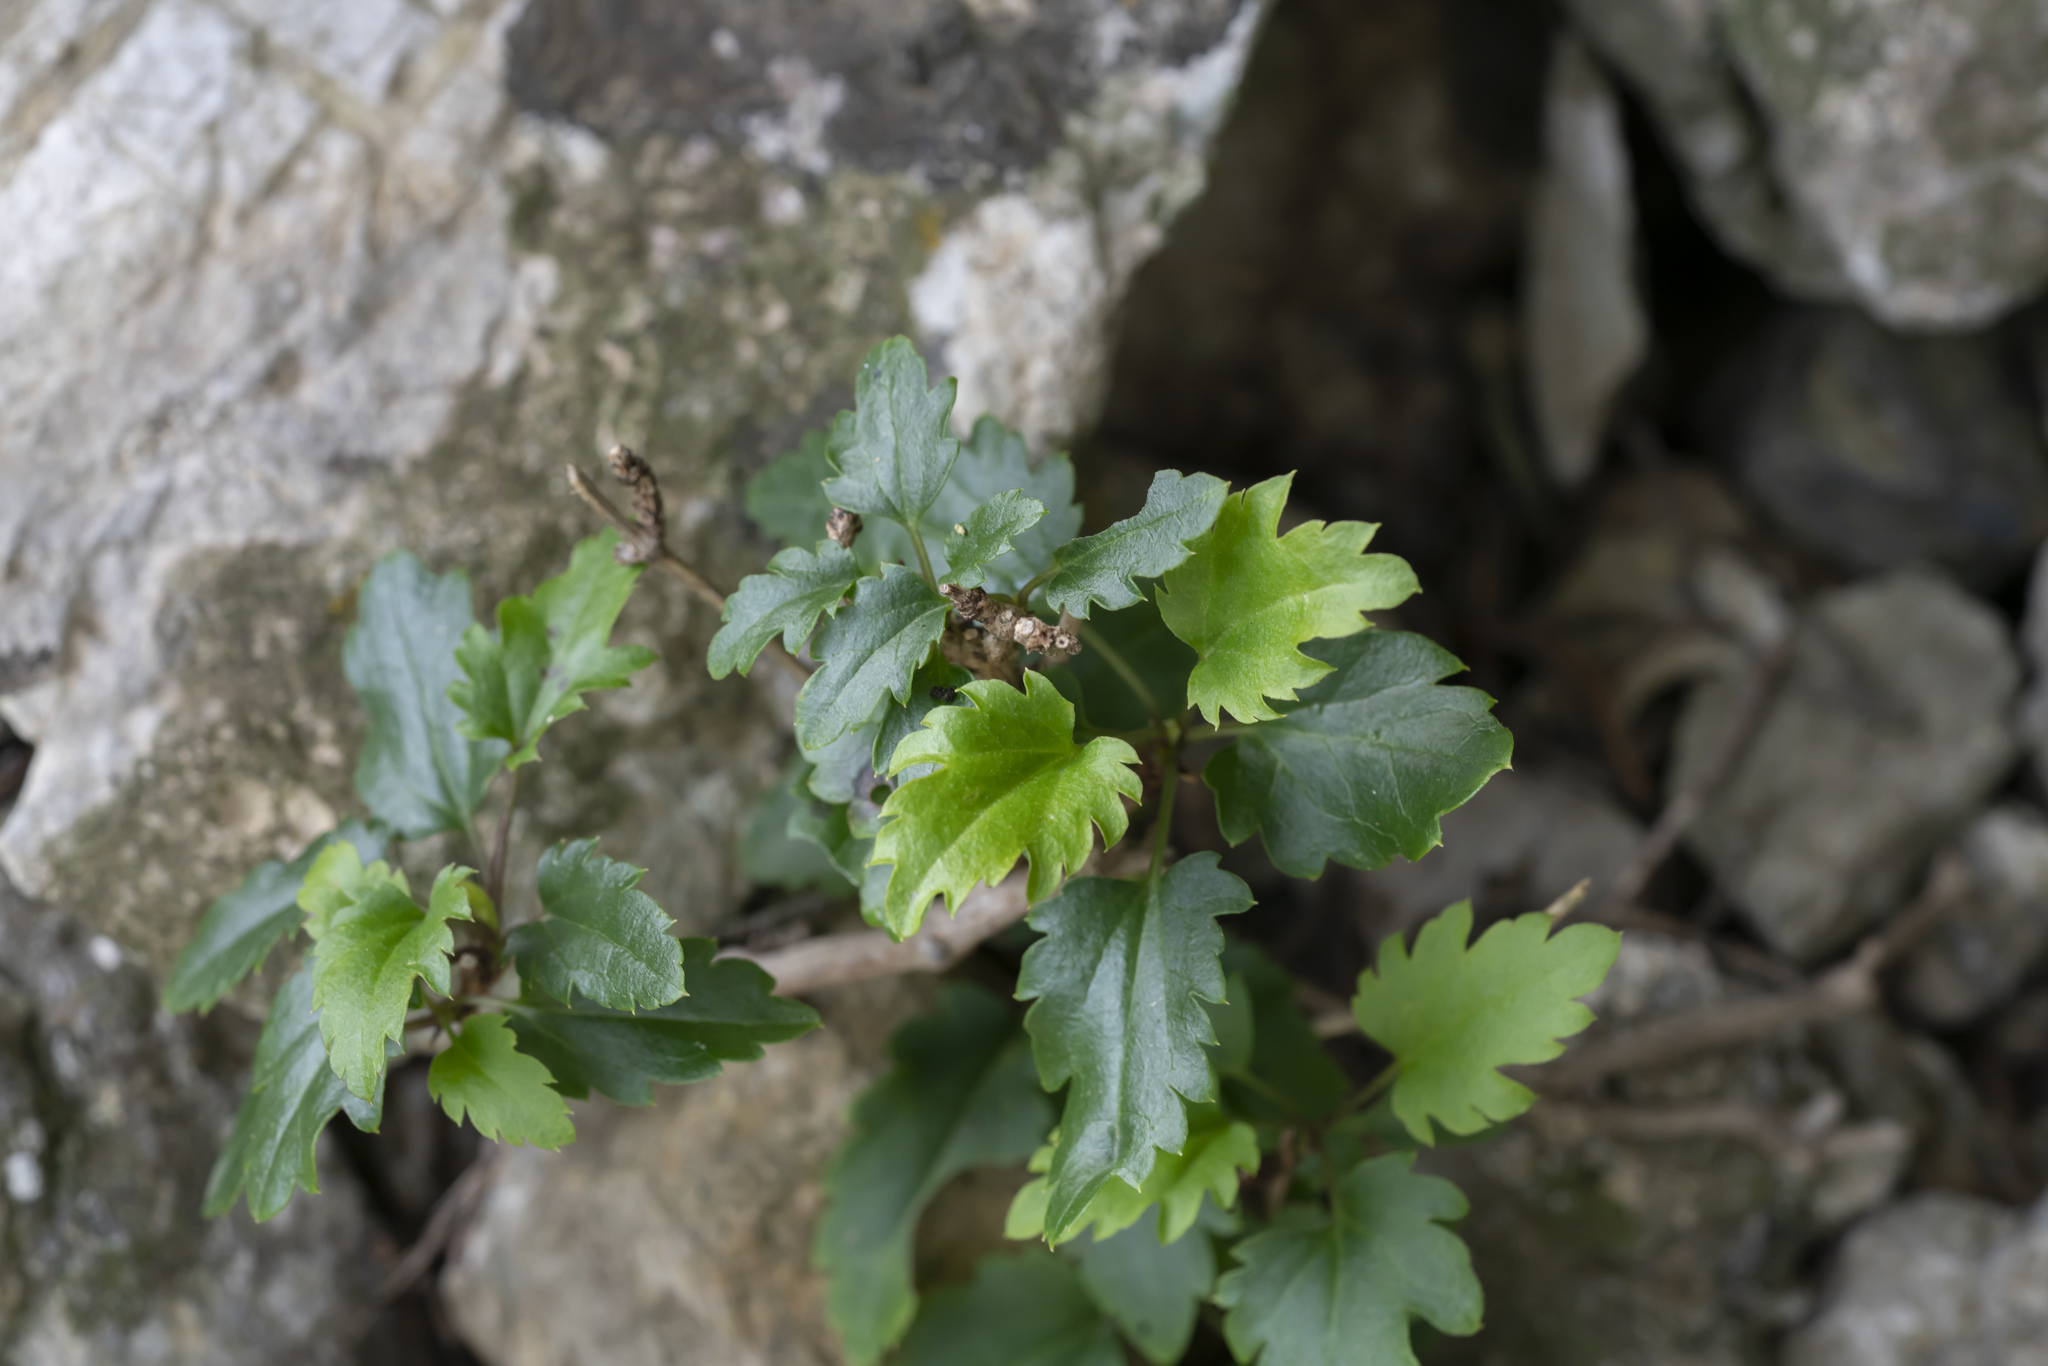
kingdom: Plantae
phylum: Tracheophyta
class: Magnoliopsida
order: Ranunculales
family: Ranunculaceae
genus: Clematis
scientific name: Clematis cirrhosa
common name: Early virgin's-bower
